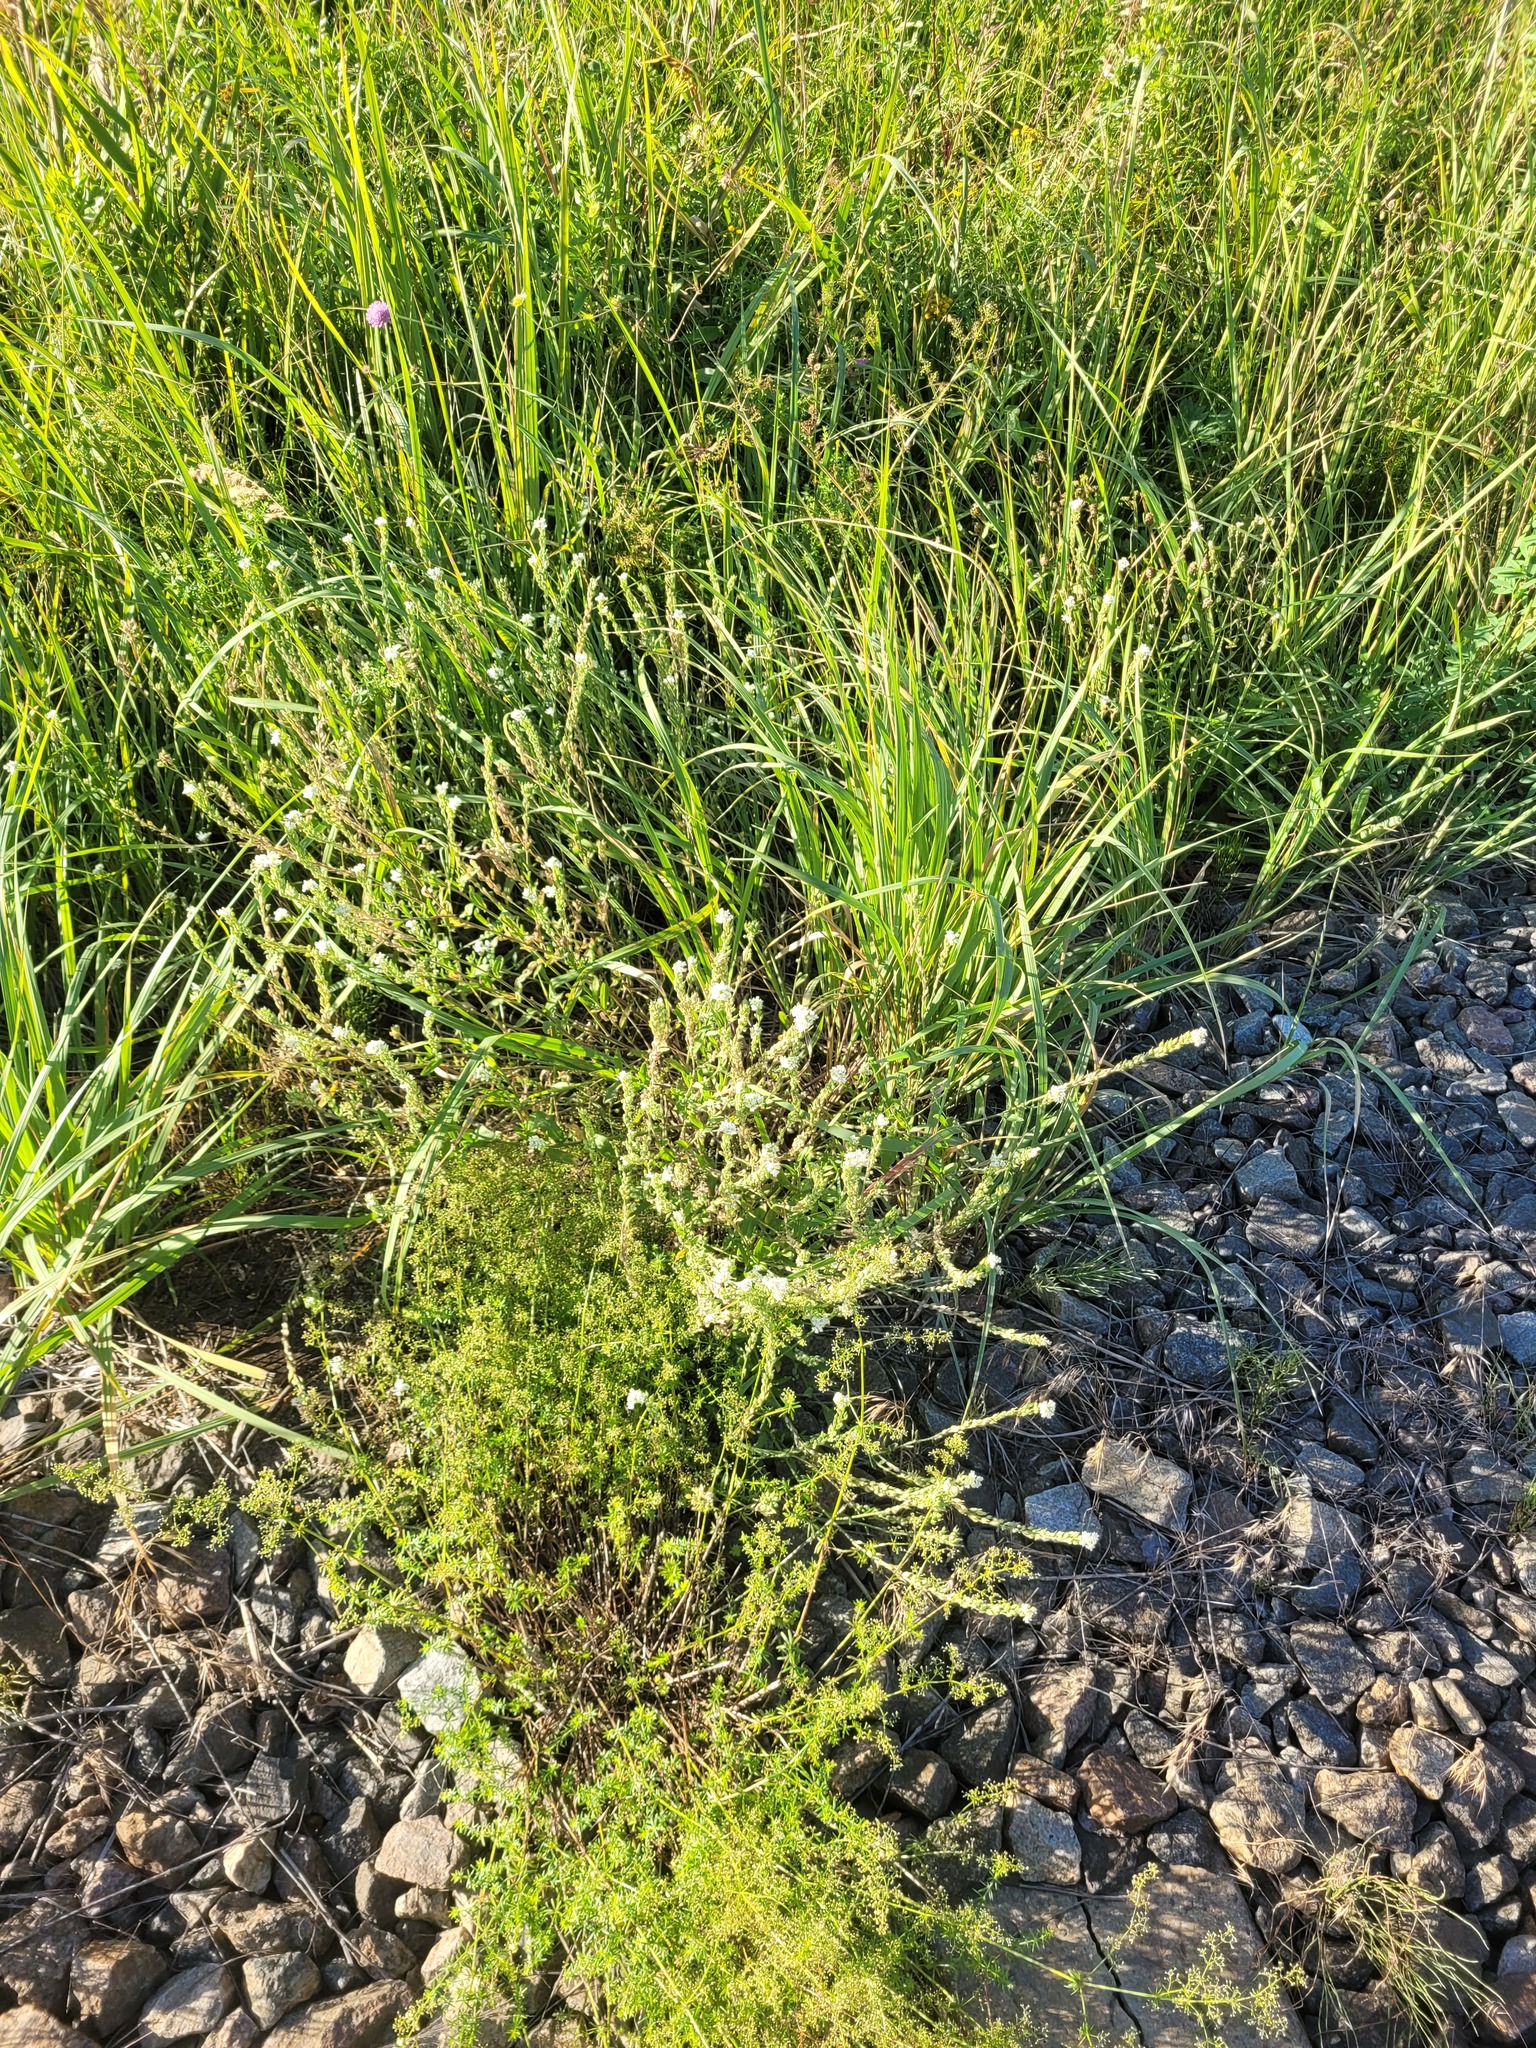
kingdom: Plantae
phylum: Tracheophyta
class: Magnoliopsida
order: Brassicales
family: Brassicaceae
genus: Berteroa
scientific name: Berteroa incana
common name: Hoary alison
